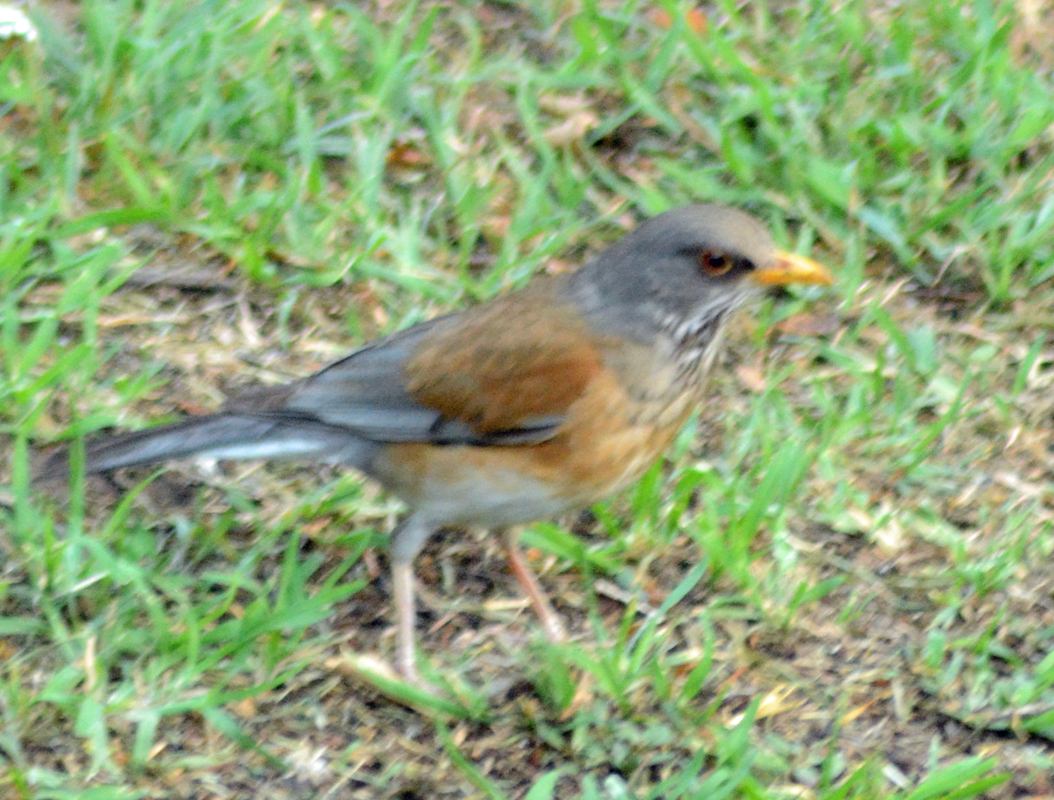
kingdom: Animalia
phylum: Chordata
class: Aves
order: Passeriformes
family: Turdidae
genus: Turdus
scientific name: Turdus rufopalliatus
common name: Rufous-backed robin
